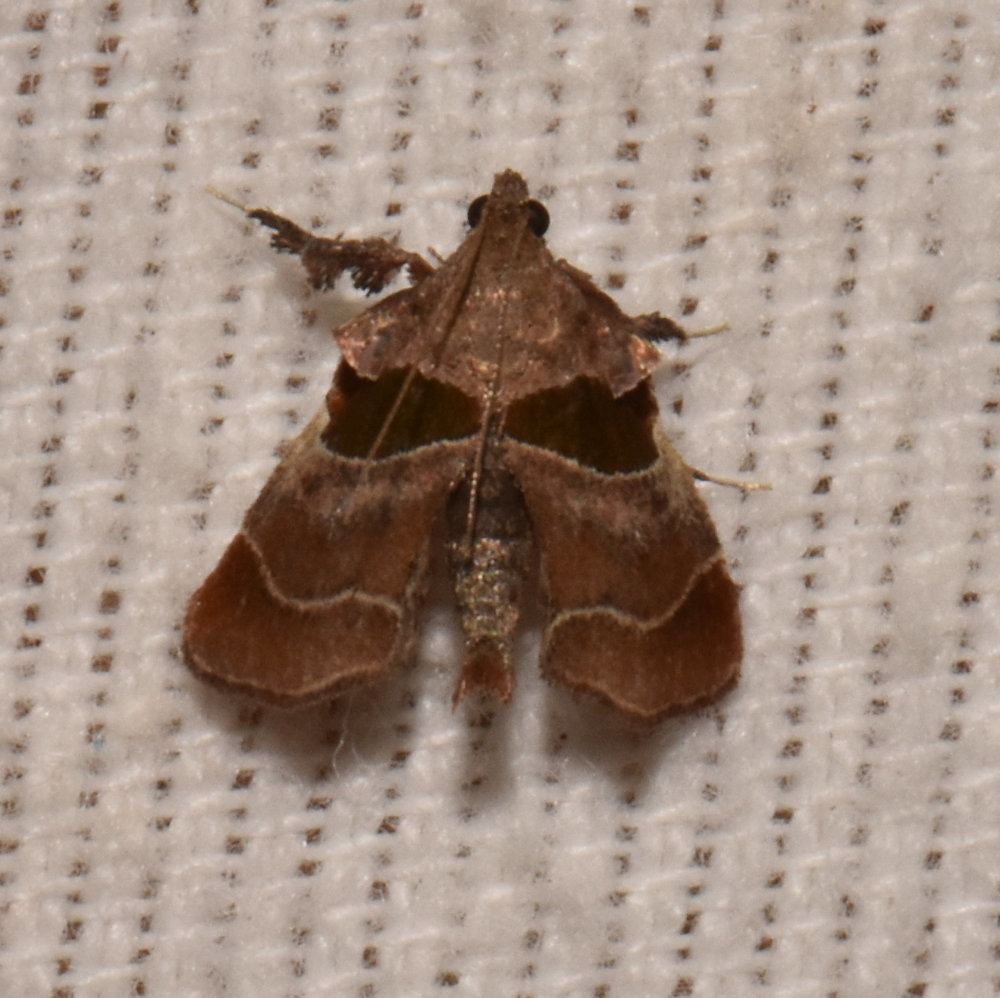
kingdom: Animalia
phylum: Arthropoda
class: Insecta
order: Lepidoptera
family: Pyralidae
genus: Tosale
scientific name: Tosale oviplagalis
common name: Dimorphic tosale moth
